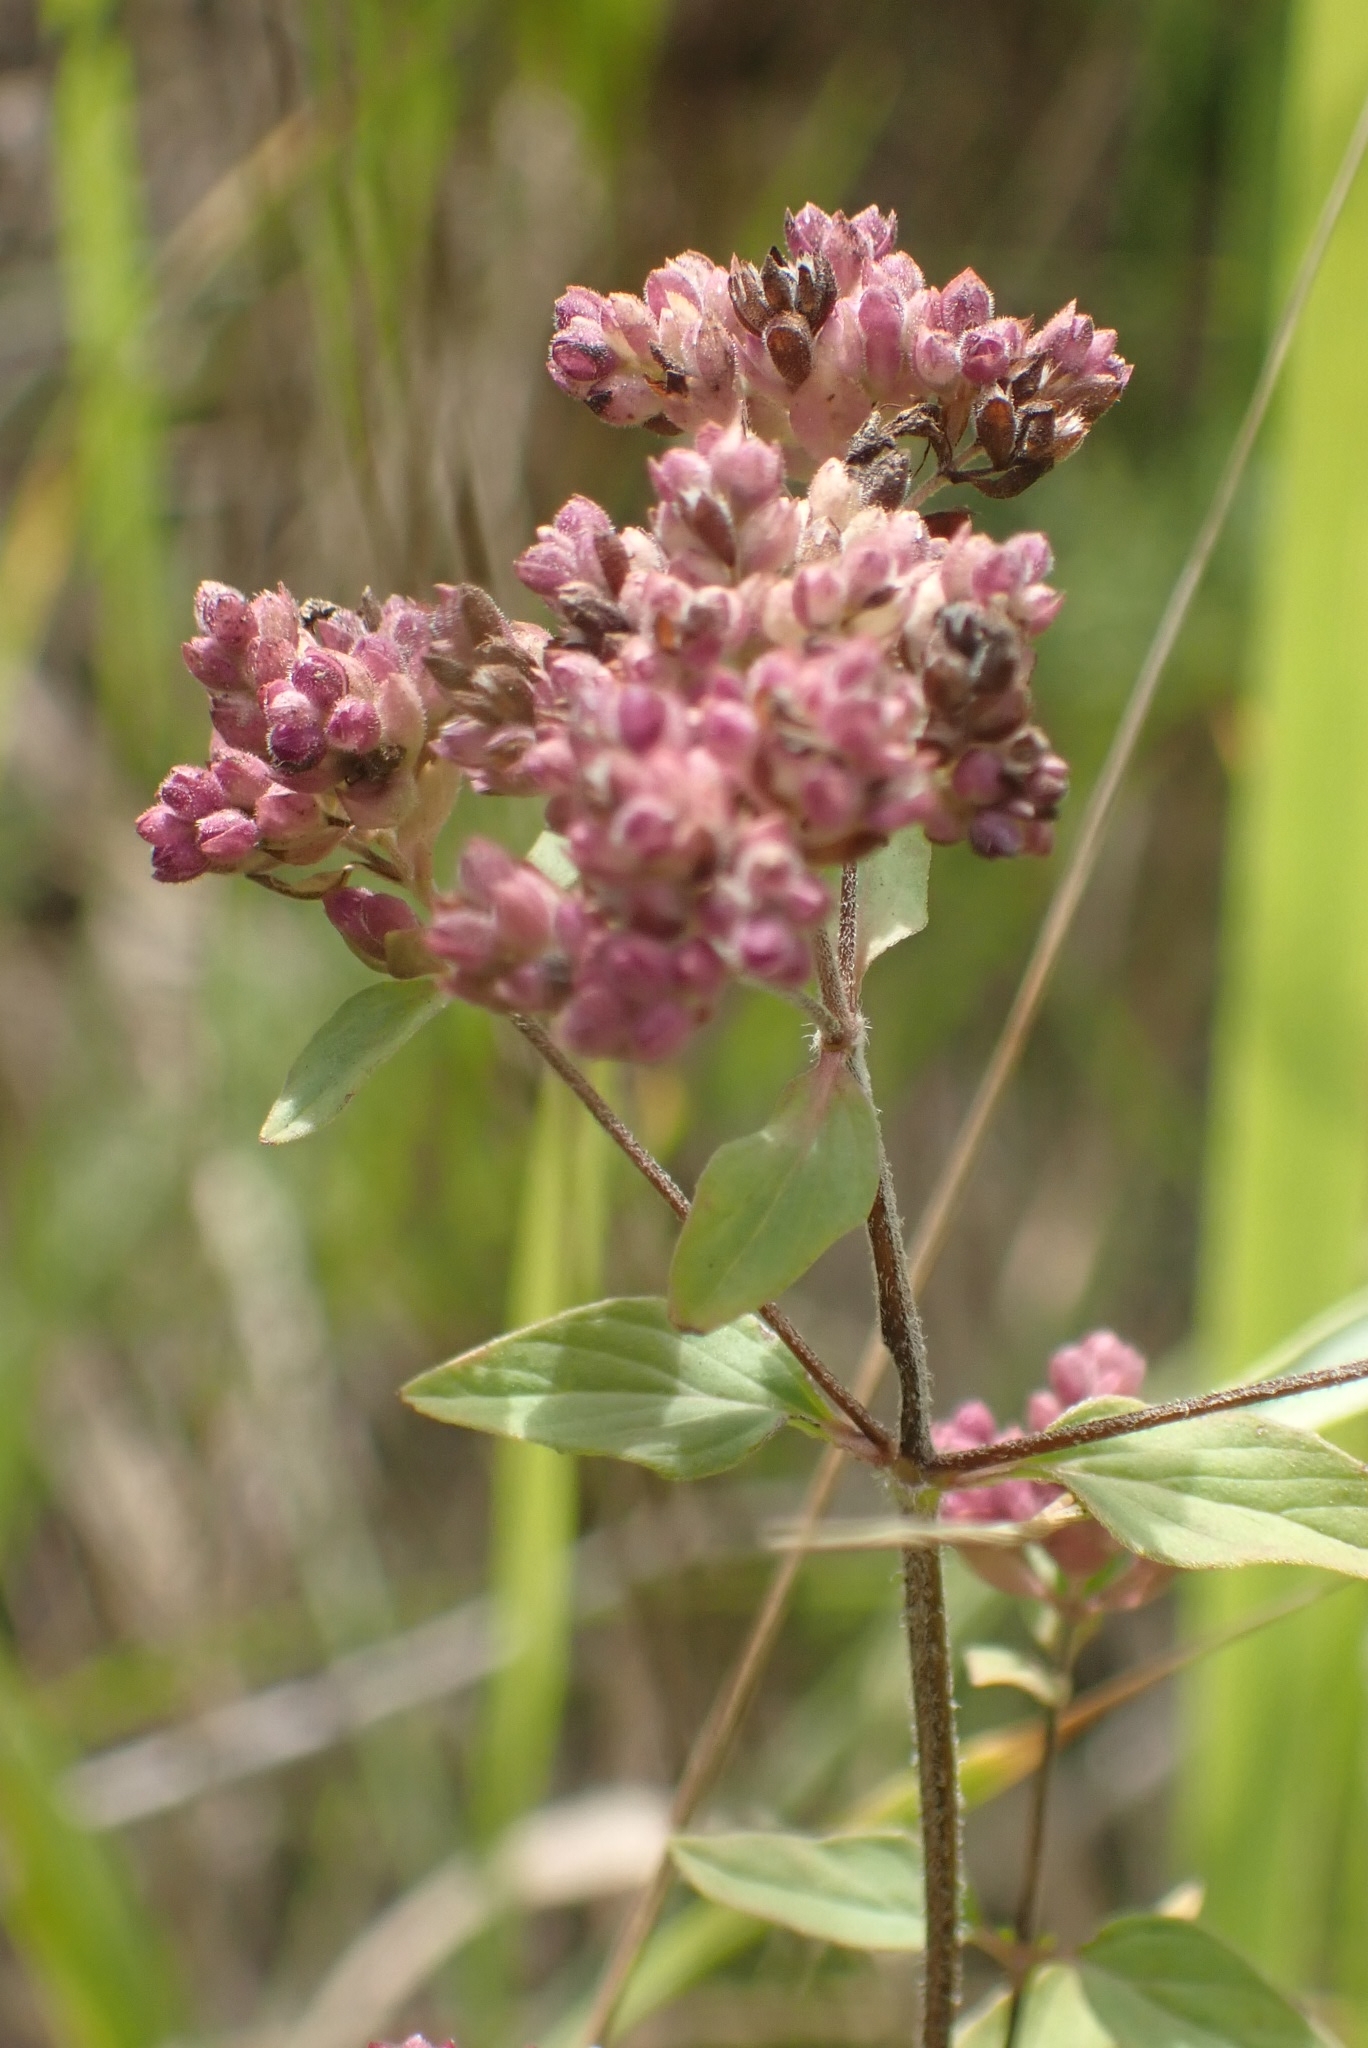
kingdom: Plantae
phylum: Tracheophyta
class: Magnoliopsida
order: Lamiales
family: Lamiaceae
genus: Origanum
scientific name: Origanum vulgare
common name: Wild marjoram
